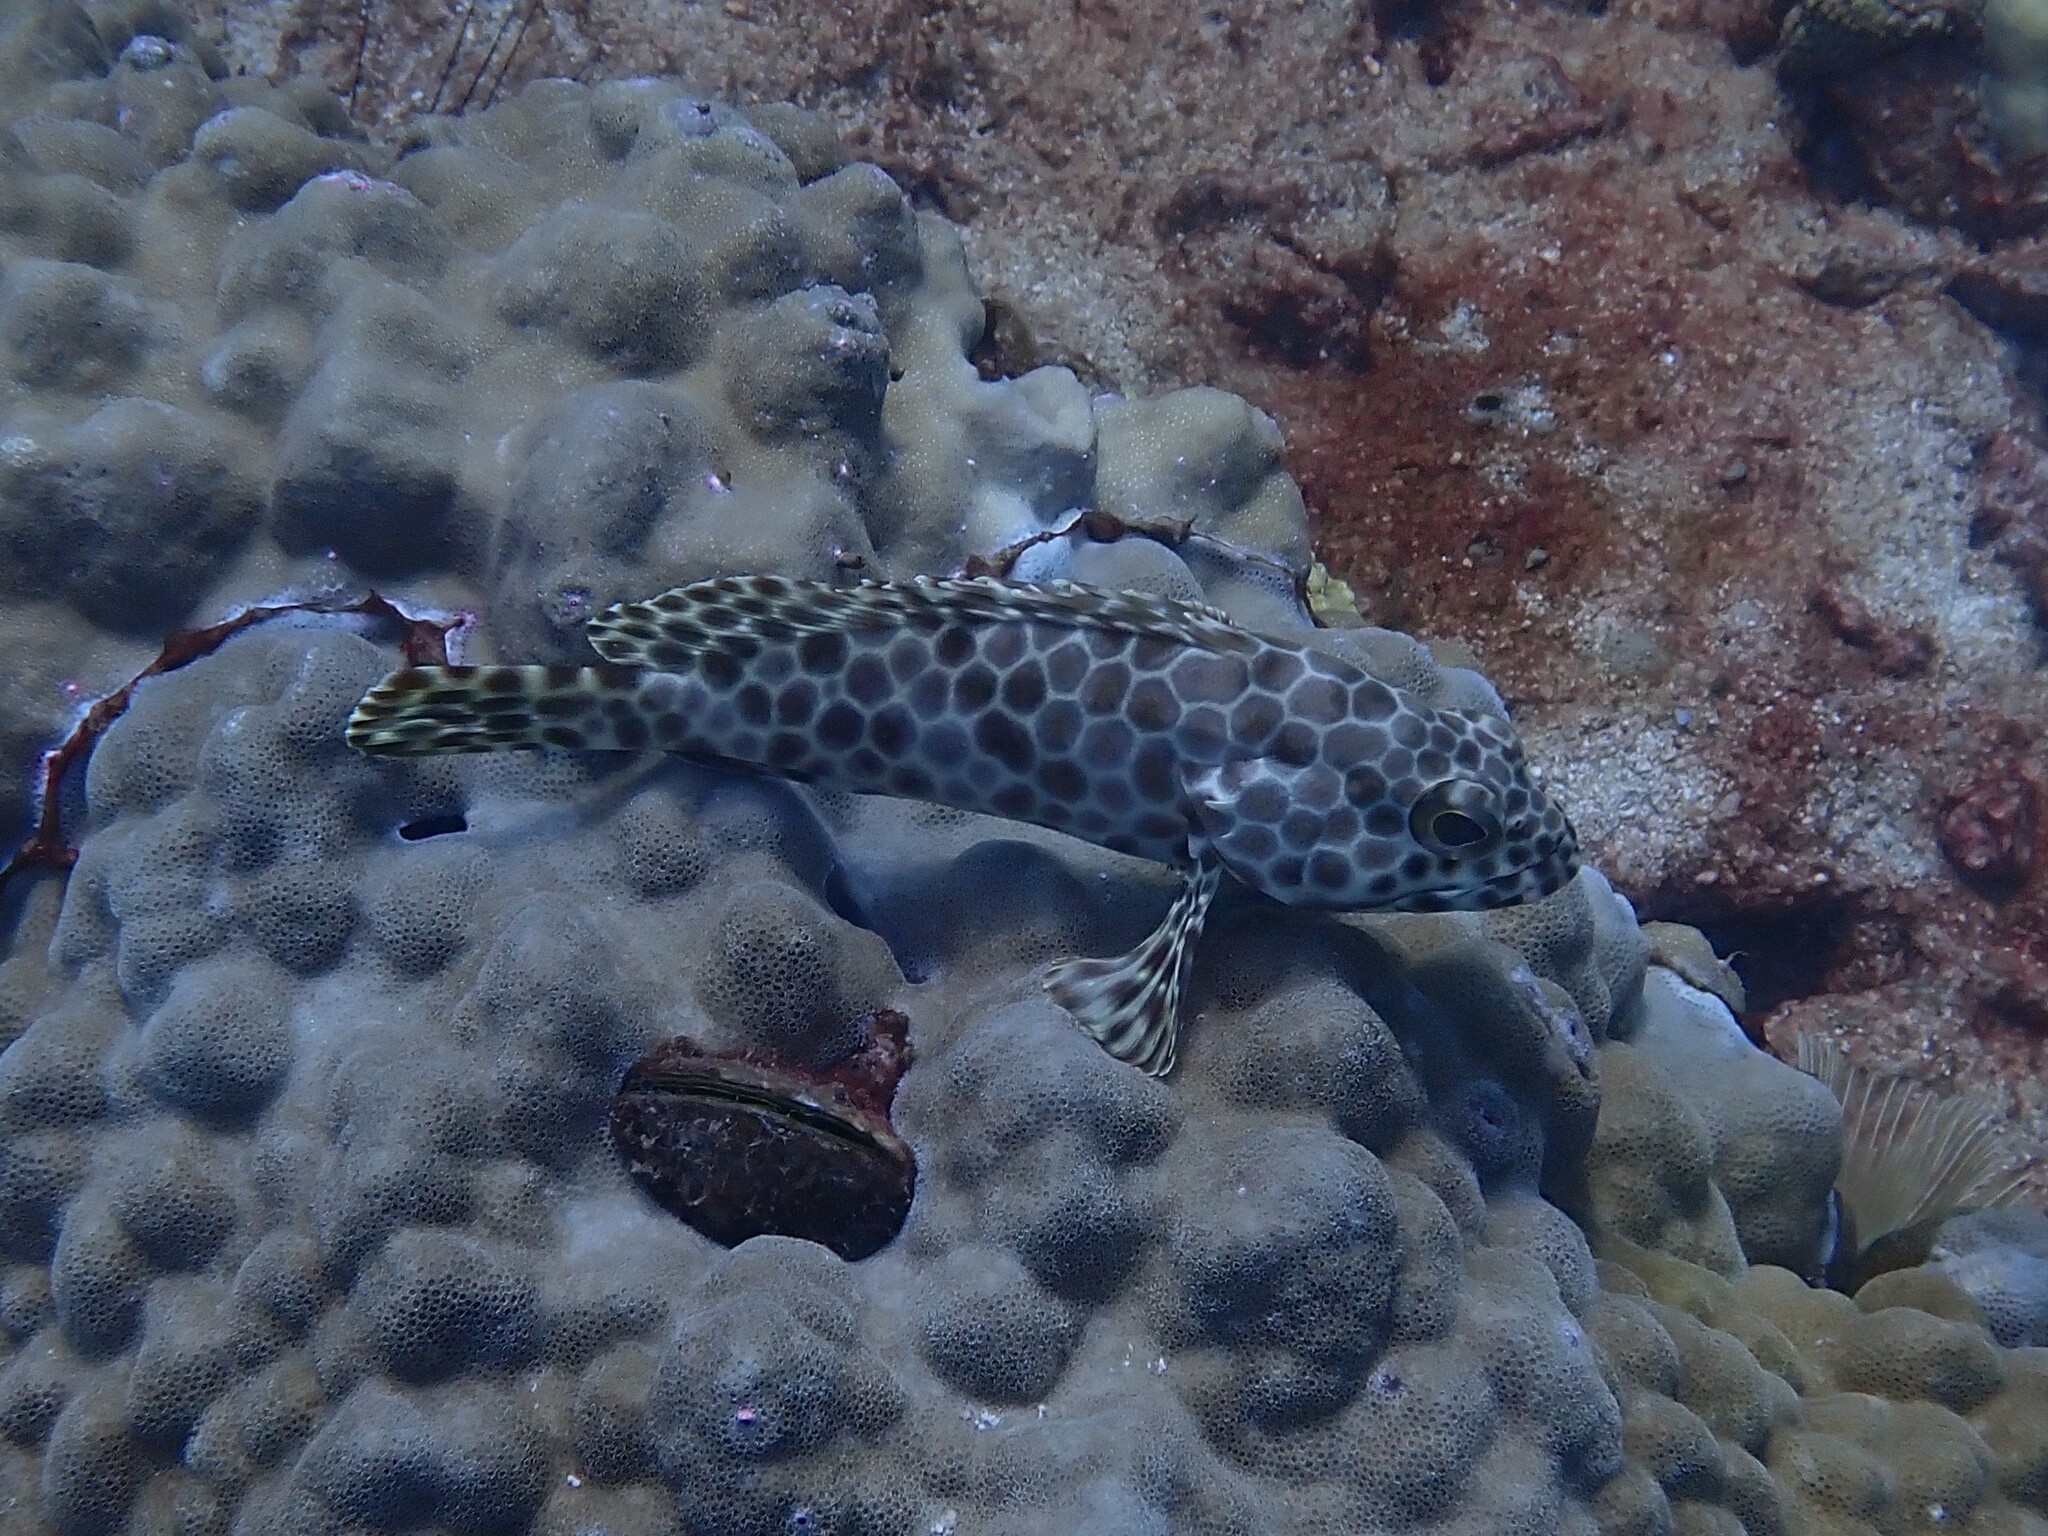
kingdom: Animalia
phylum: Chordata
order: Perciformes
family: Serranidae
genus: Epinephelus
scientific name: Epinephelus quoyanus
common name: Longfin grouper
